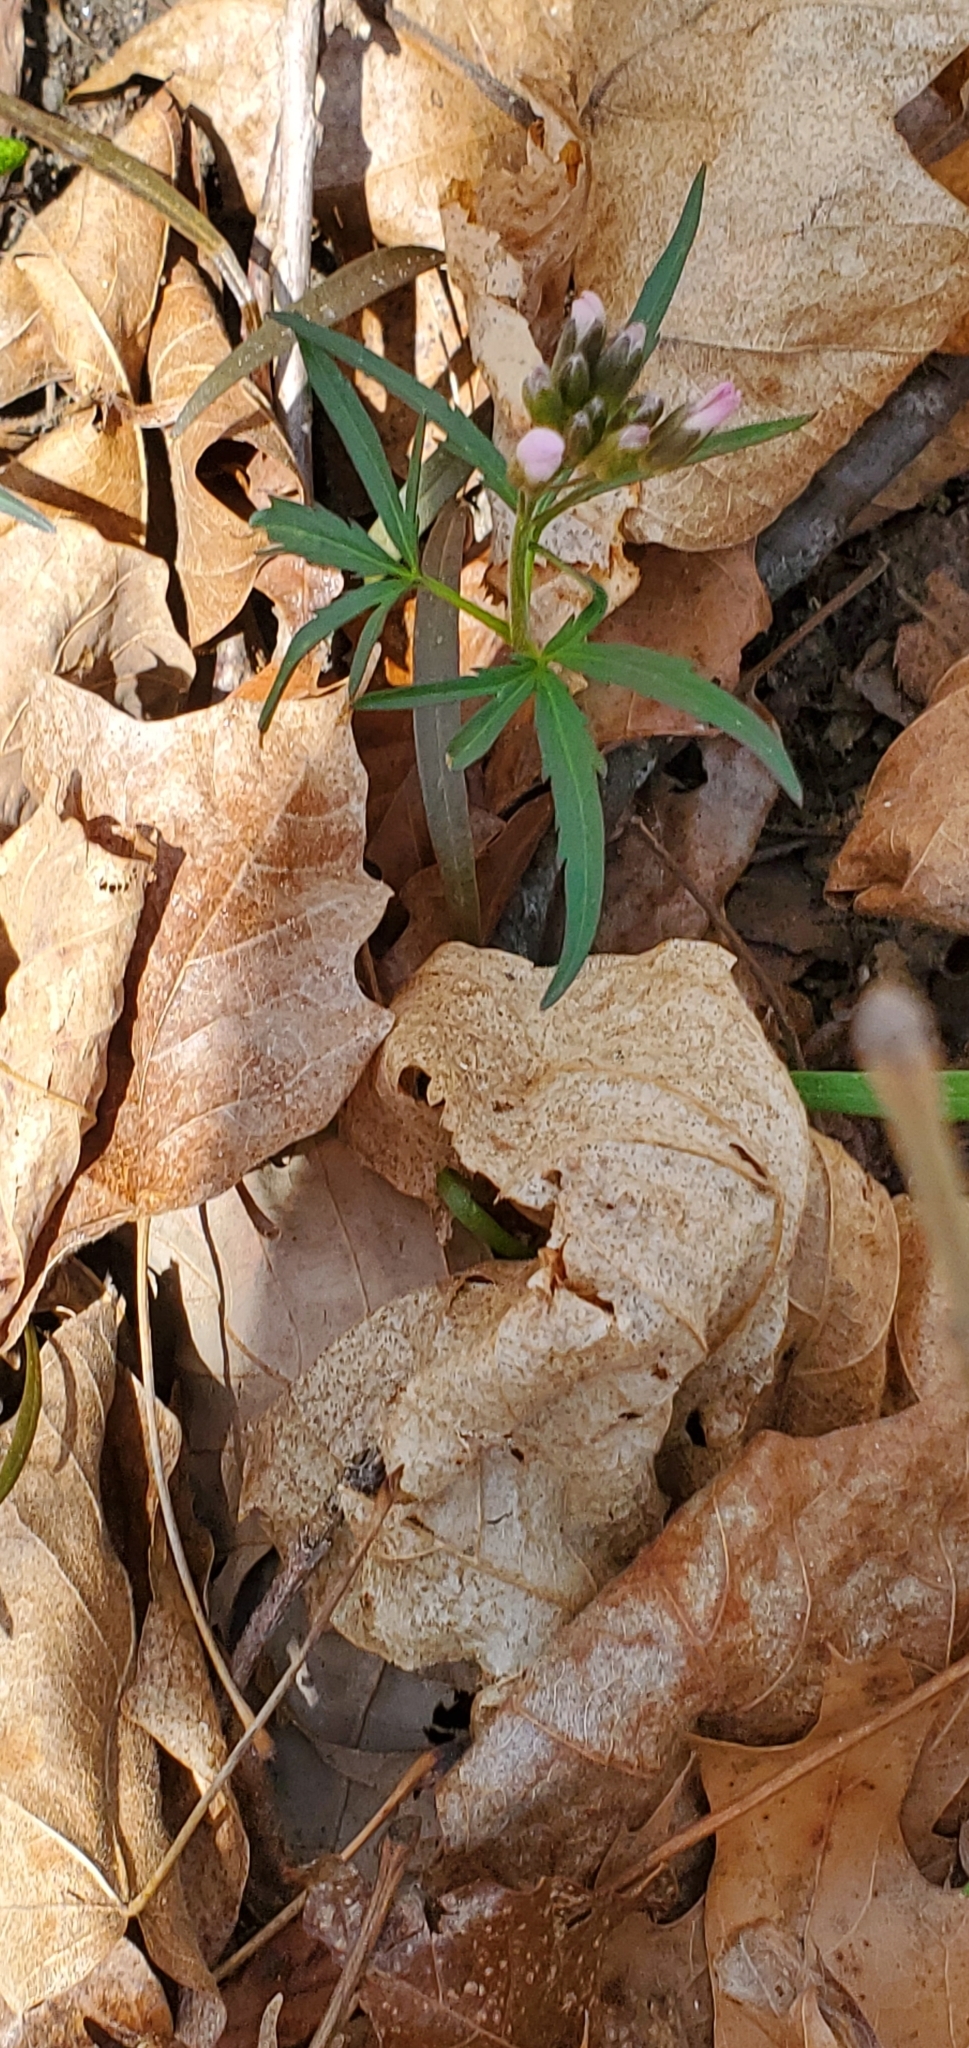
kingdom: Plantae
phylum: Tracheophyta
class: Magnoliopsida
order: Brassicales
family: Brassicaceae
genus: Cardamine
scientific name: Cardamine concatenata
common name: Cut-leaf toothcup
